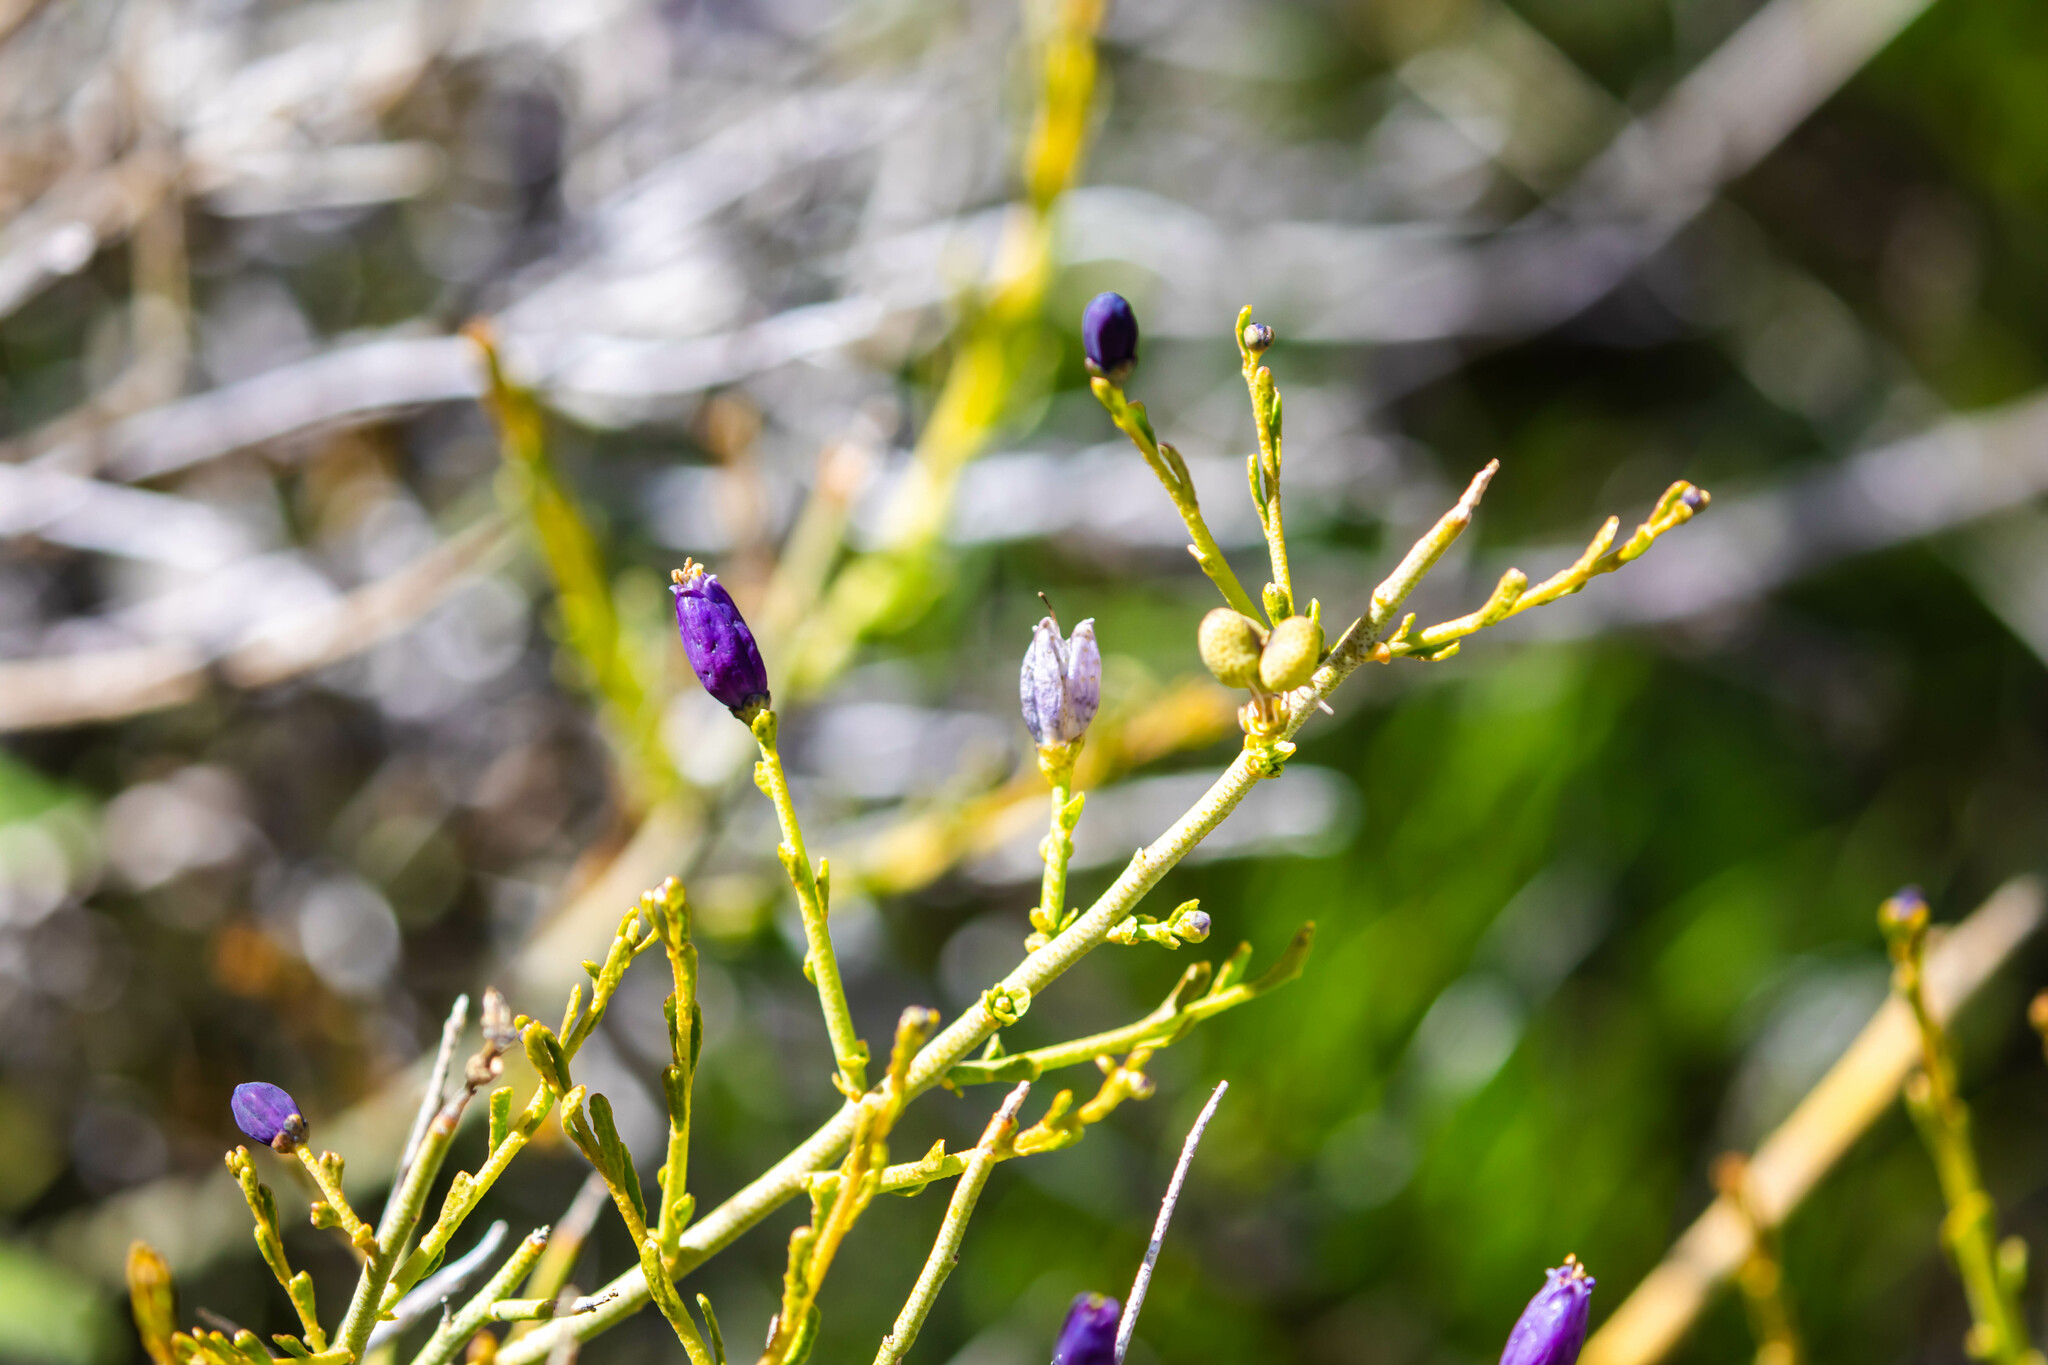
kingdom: Plantae
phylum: Tracheophyta
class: Magnoliopsida
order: Sapindales
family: Rutaceae
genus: Thamnosma
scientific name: Thamnosma montana
